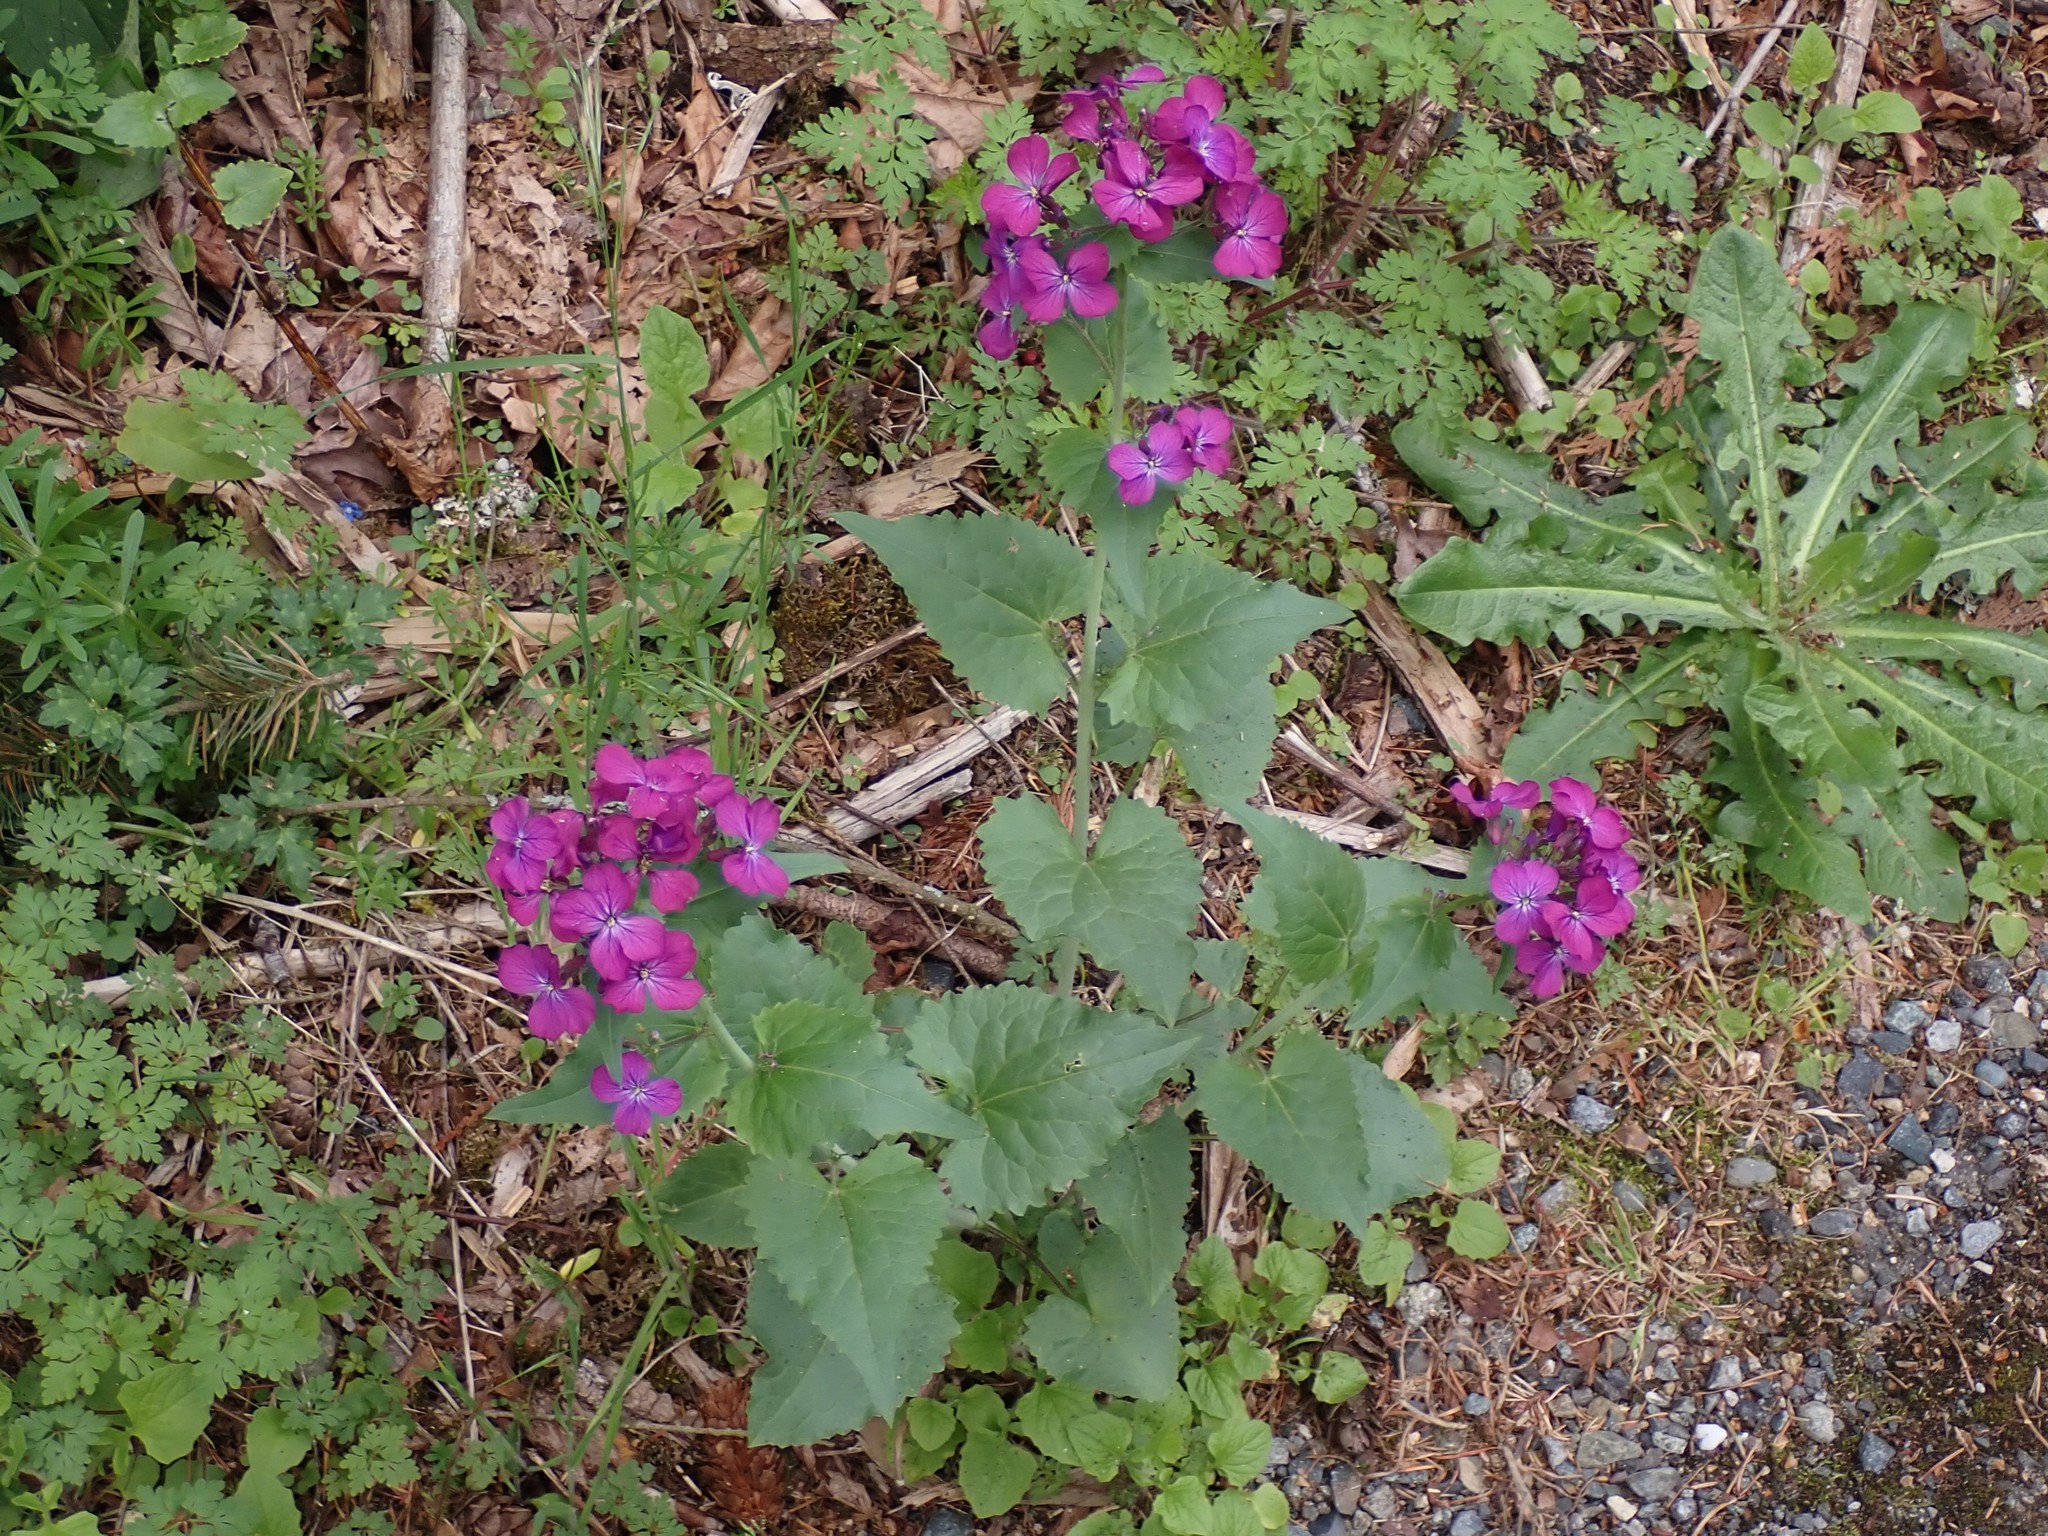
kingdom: Plantae
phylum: Tracheophyta
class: Magnoliopsida
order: Brassicales
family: Brassicaceae
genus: Lunaria
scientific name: Lunaria annua
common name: Honesty
